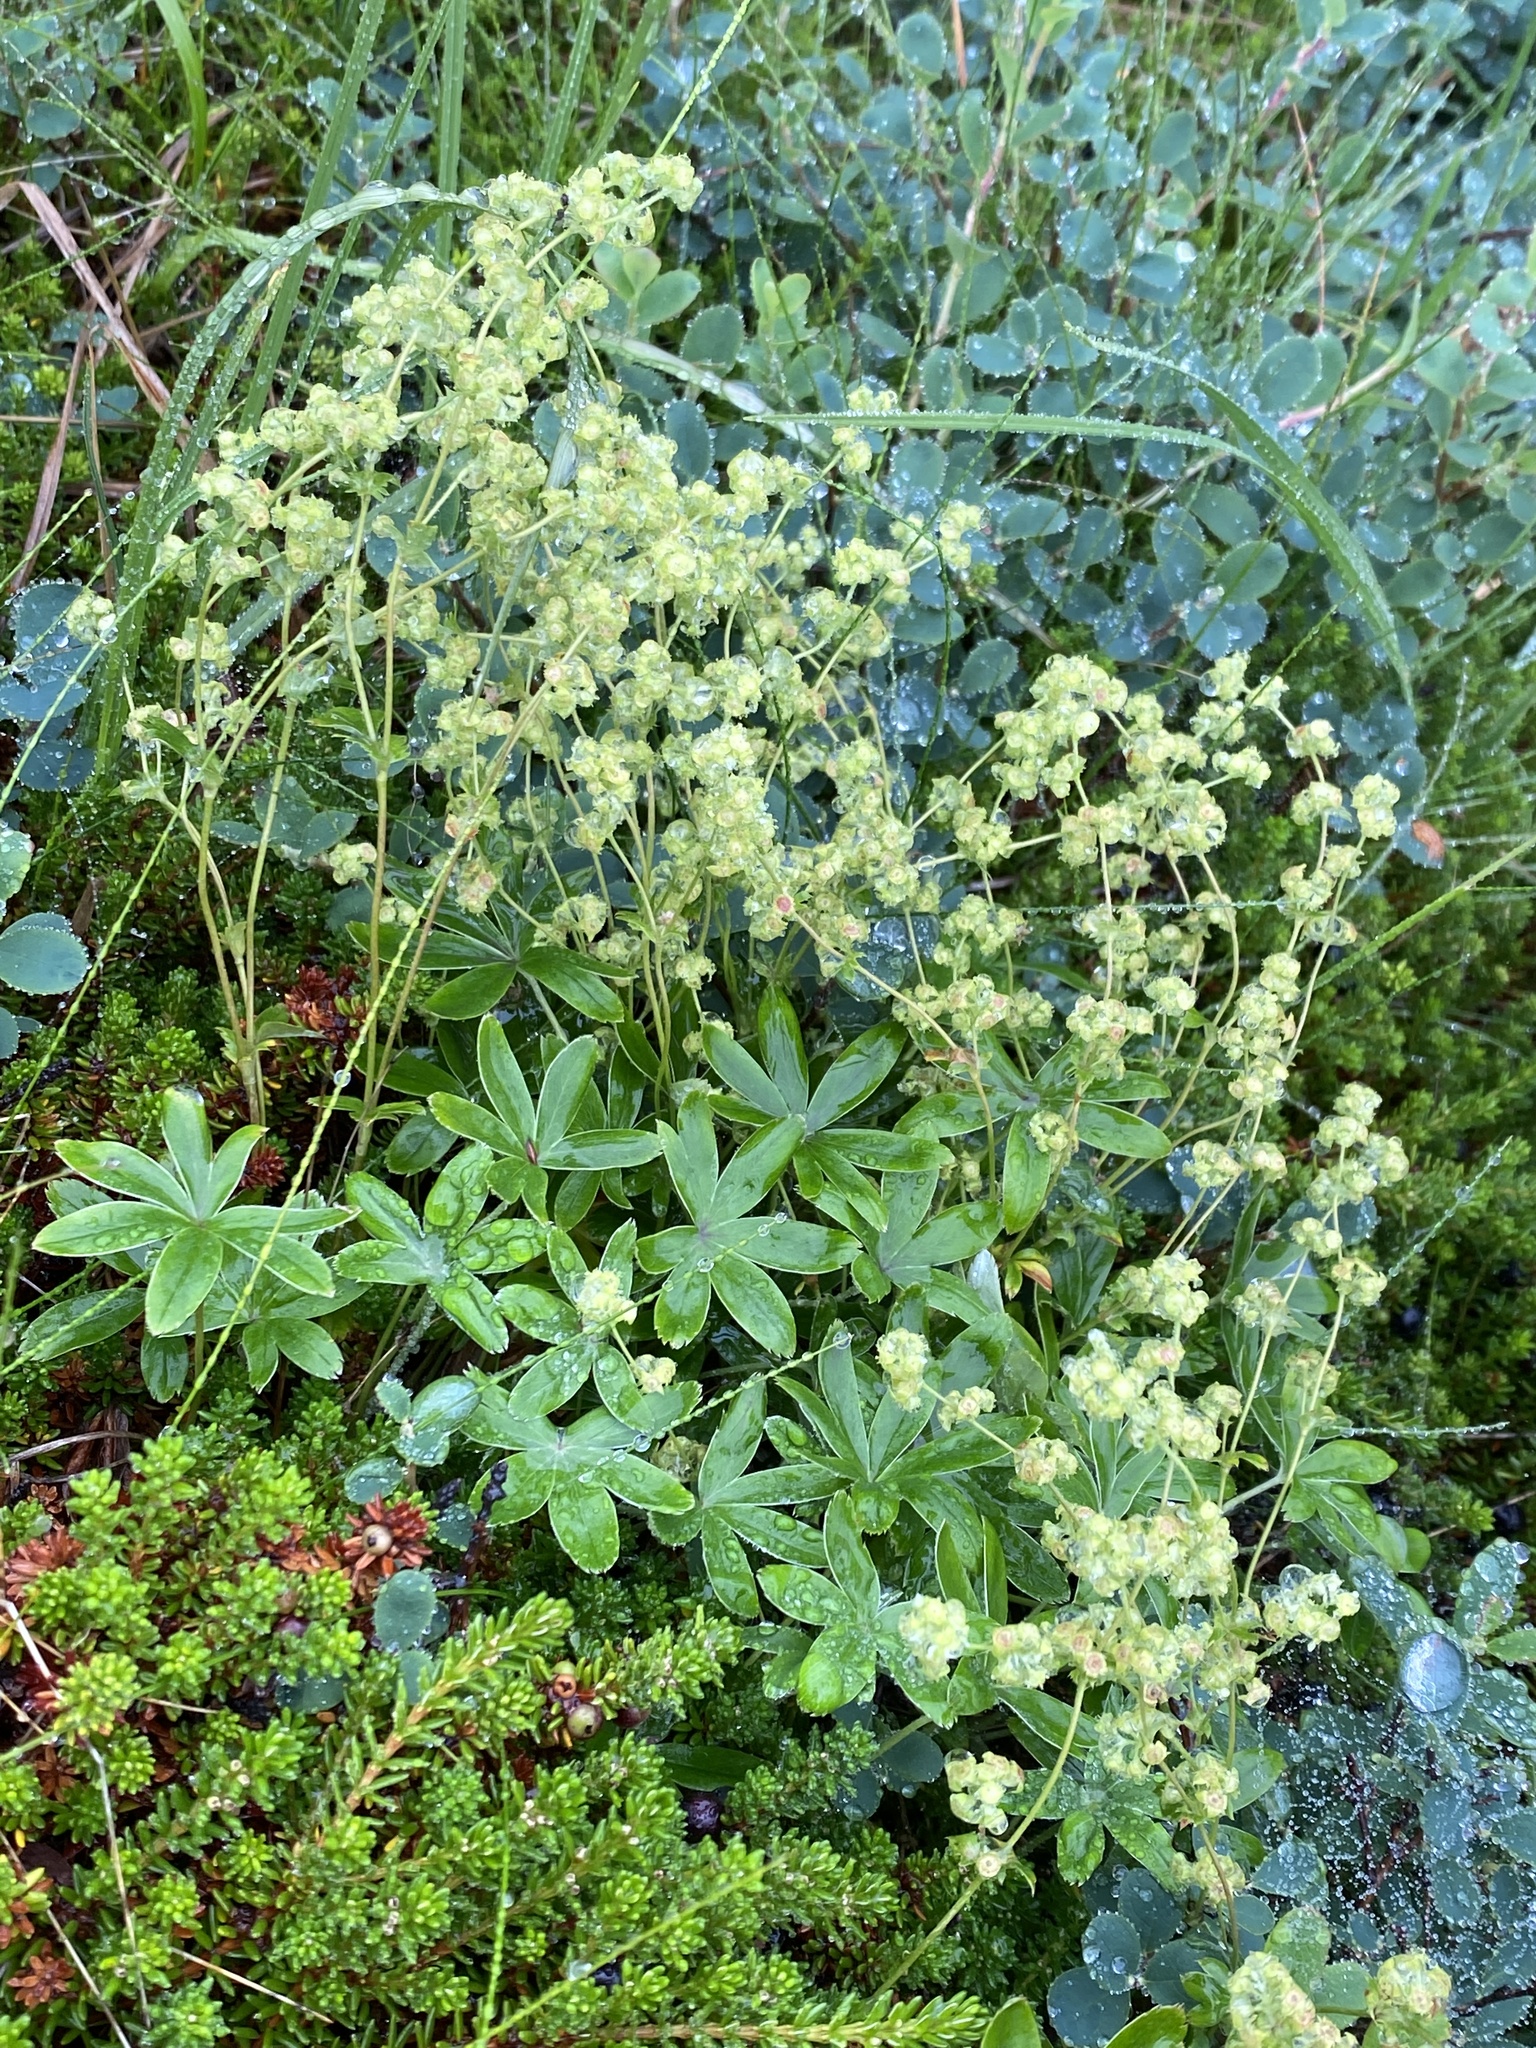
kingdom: Plantae
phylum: Tracheophyta
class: Magnoliopsida
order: Rosales
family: Rosaceae
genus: Alchemilla
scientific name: Alchemilla alpina
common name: Alpine lady's-mantle
